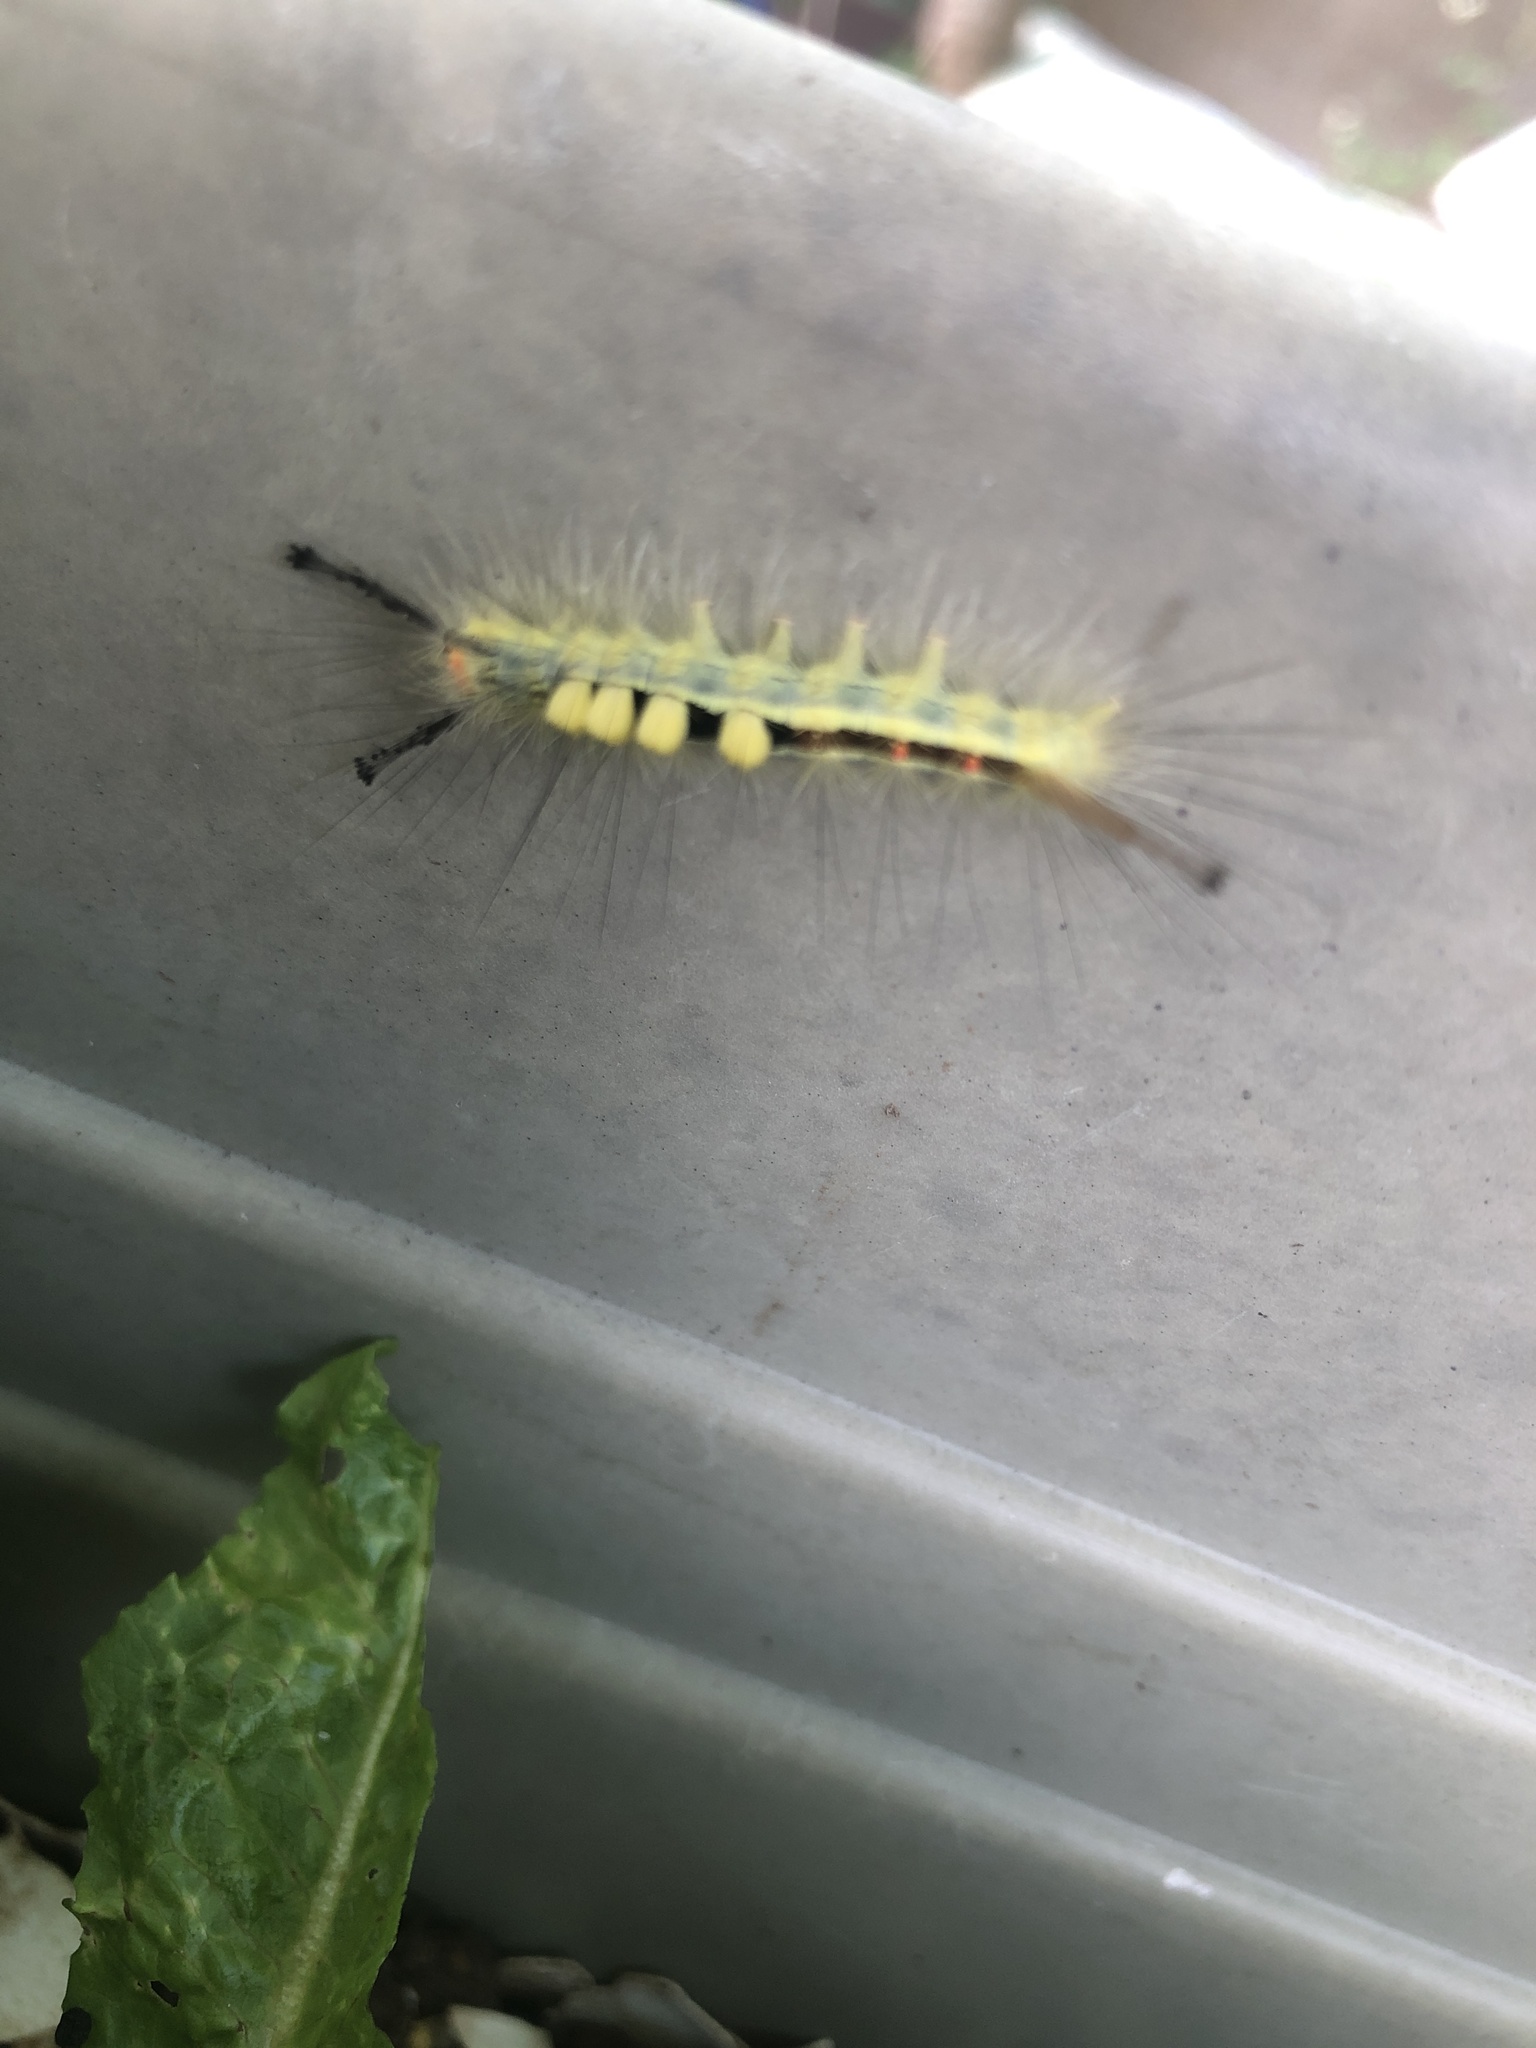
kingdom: Animalia
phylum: Arthropoda
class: Insecta
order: Lepidoptera
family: Erebidae
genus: Orgyia
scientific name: Orgyia leucostigma
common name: White-marked tussock moth
